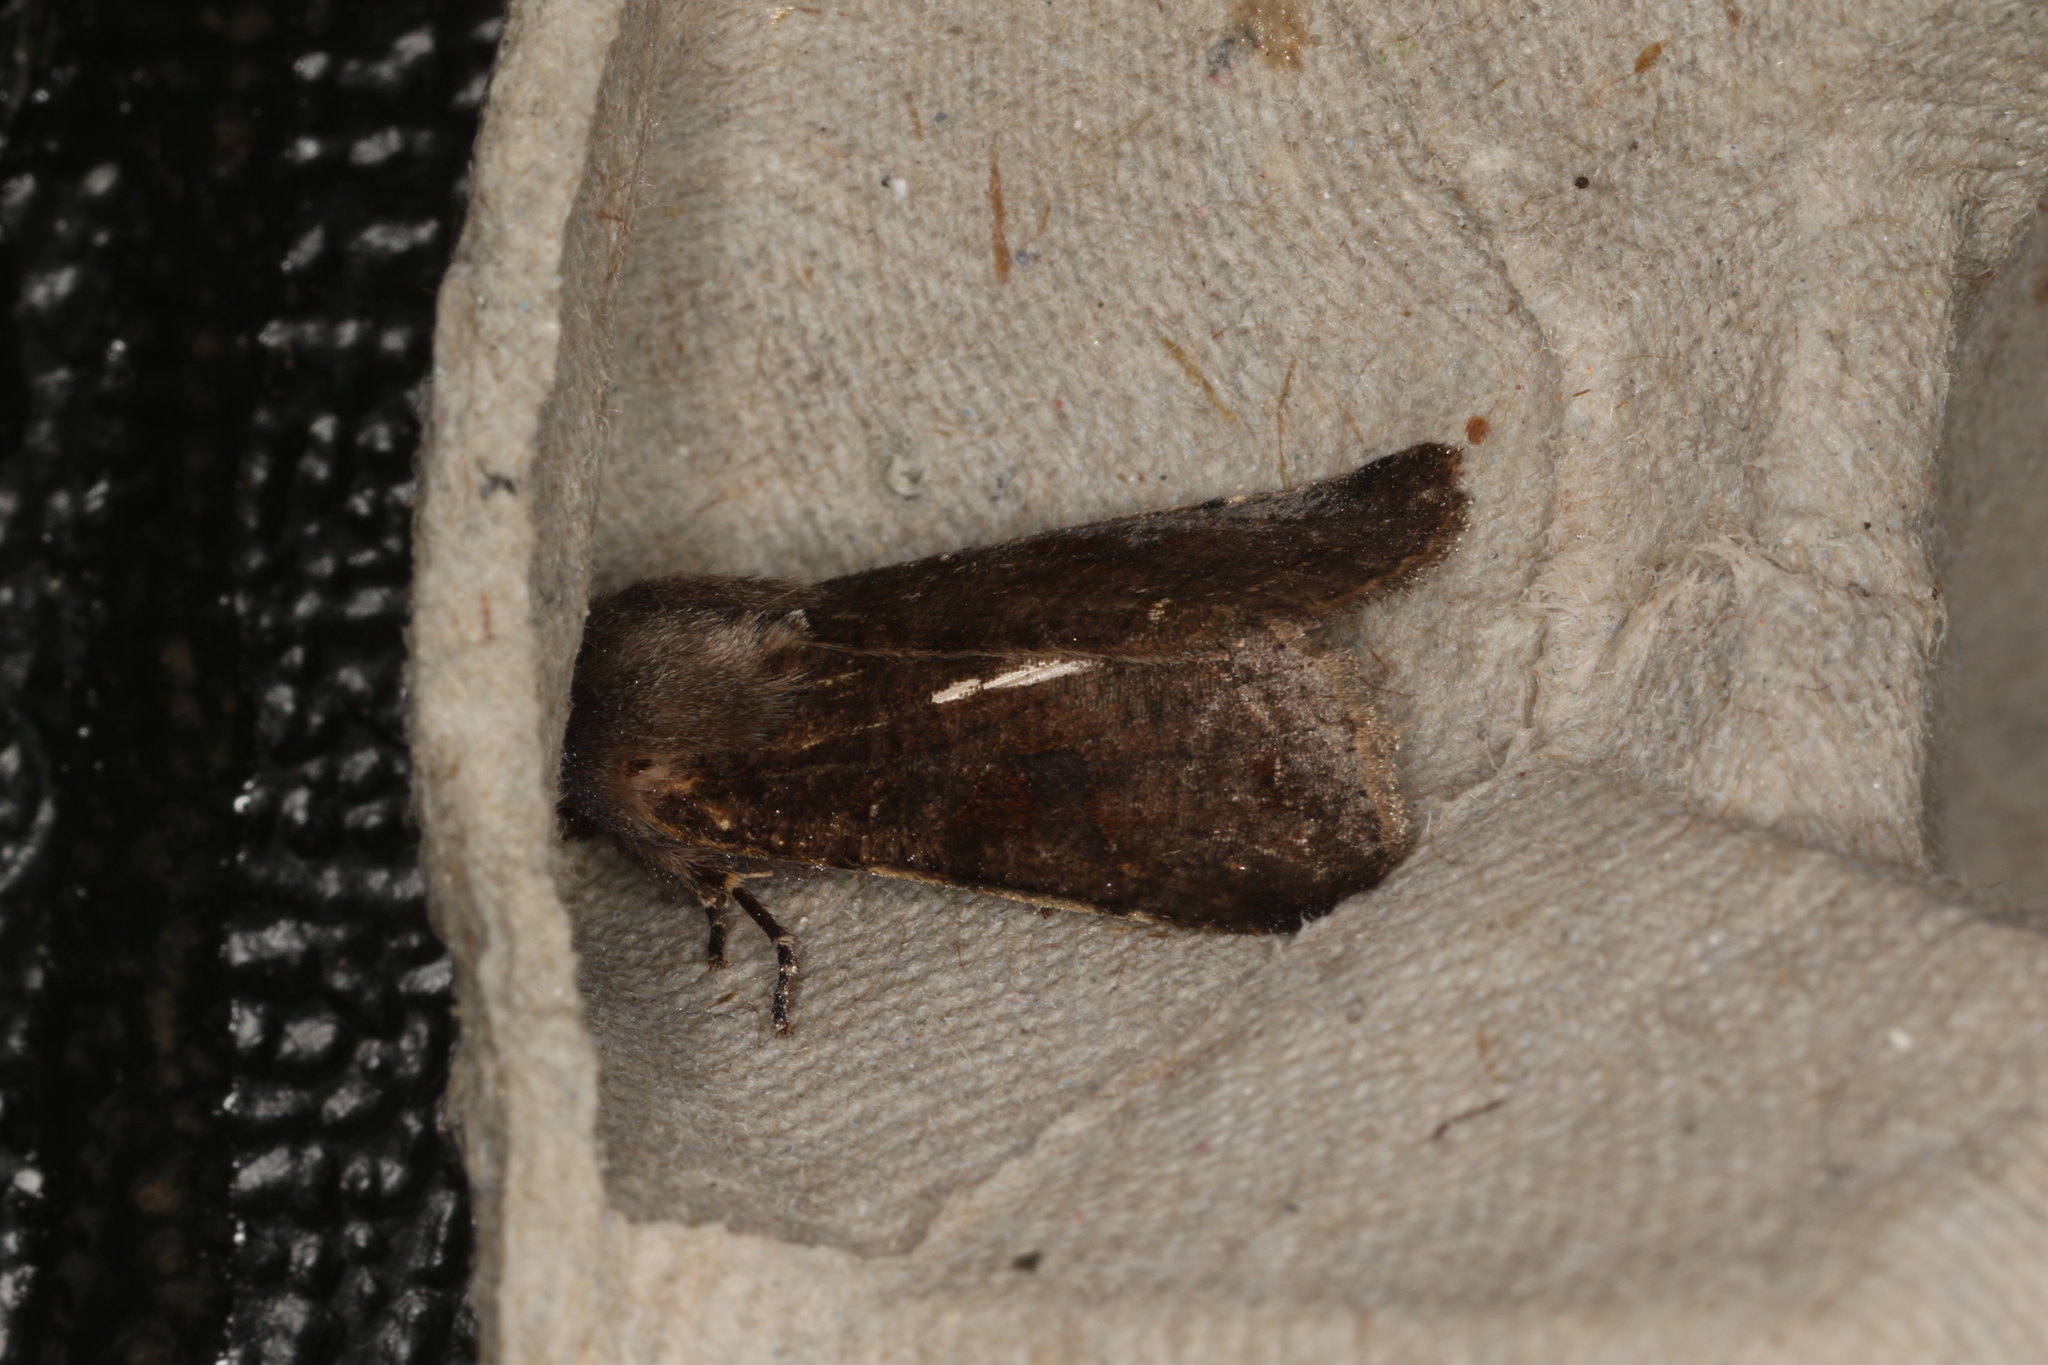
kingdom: Animalia
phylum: Arthropoda
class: Insecta
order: Lepidoptera
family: Noctuidae
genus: Orthosia
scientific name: Orthosia incerta
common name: Clouded drab
